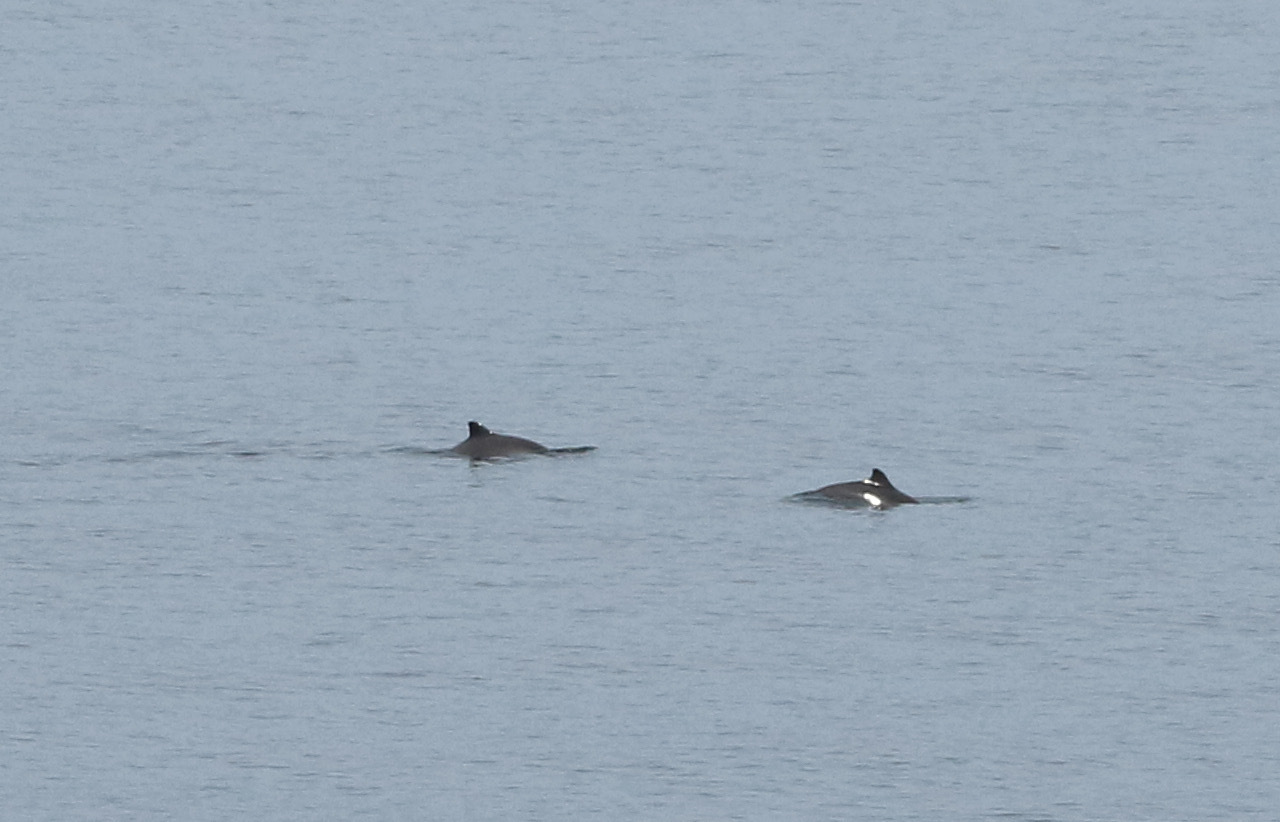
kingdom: Animalia
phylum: Chordata
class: Mammalia
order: Cetacea
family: Phocoenidae
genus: Phocoena
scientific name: Phocoena phocoena
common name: Harbor porpoise
